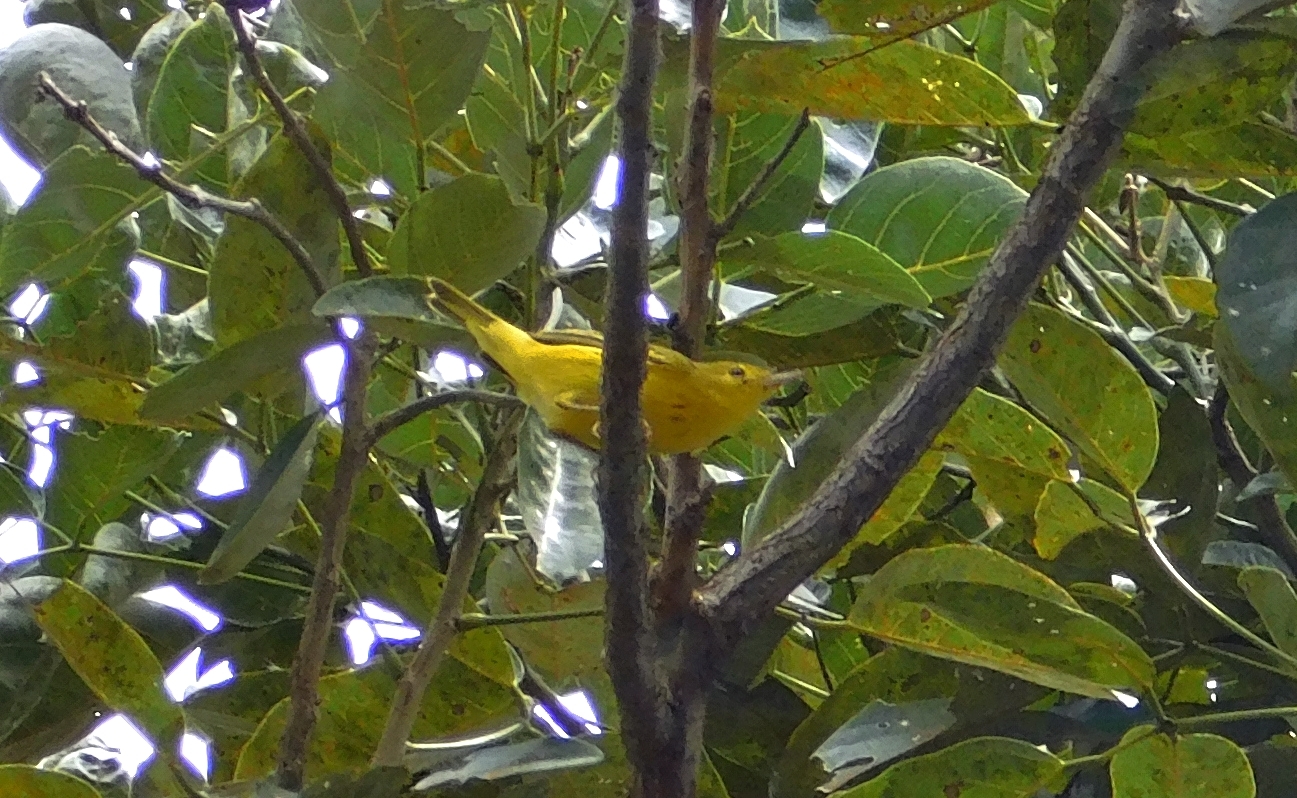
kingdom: Animalia
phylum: Chordata
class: Aves
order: Passeriformes
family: Parulidae
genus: Setophaga
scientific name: Setophaga petechia
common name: Yellow warbler
